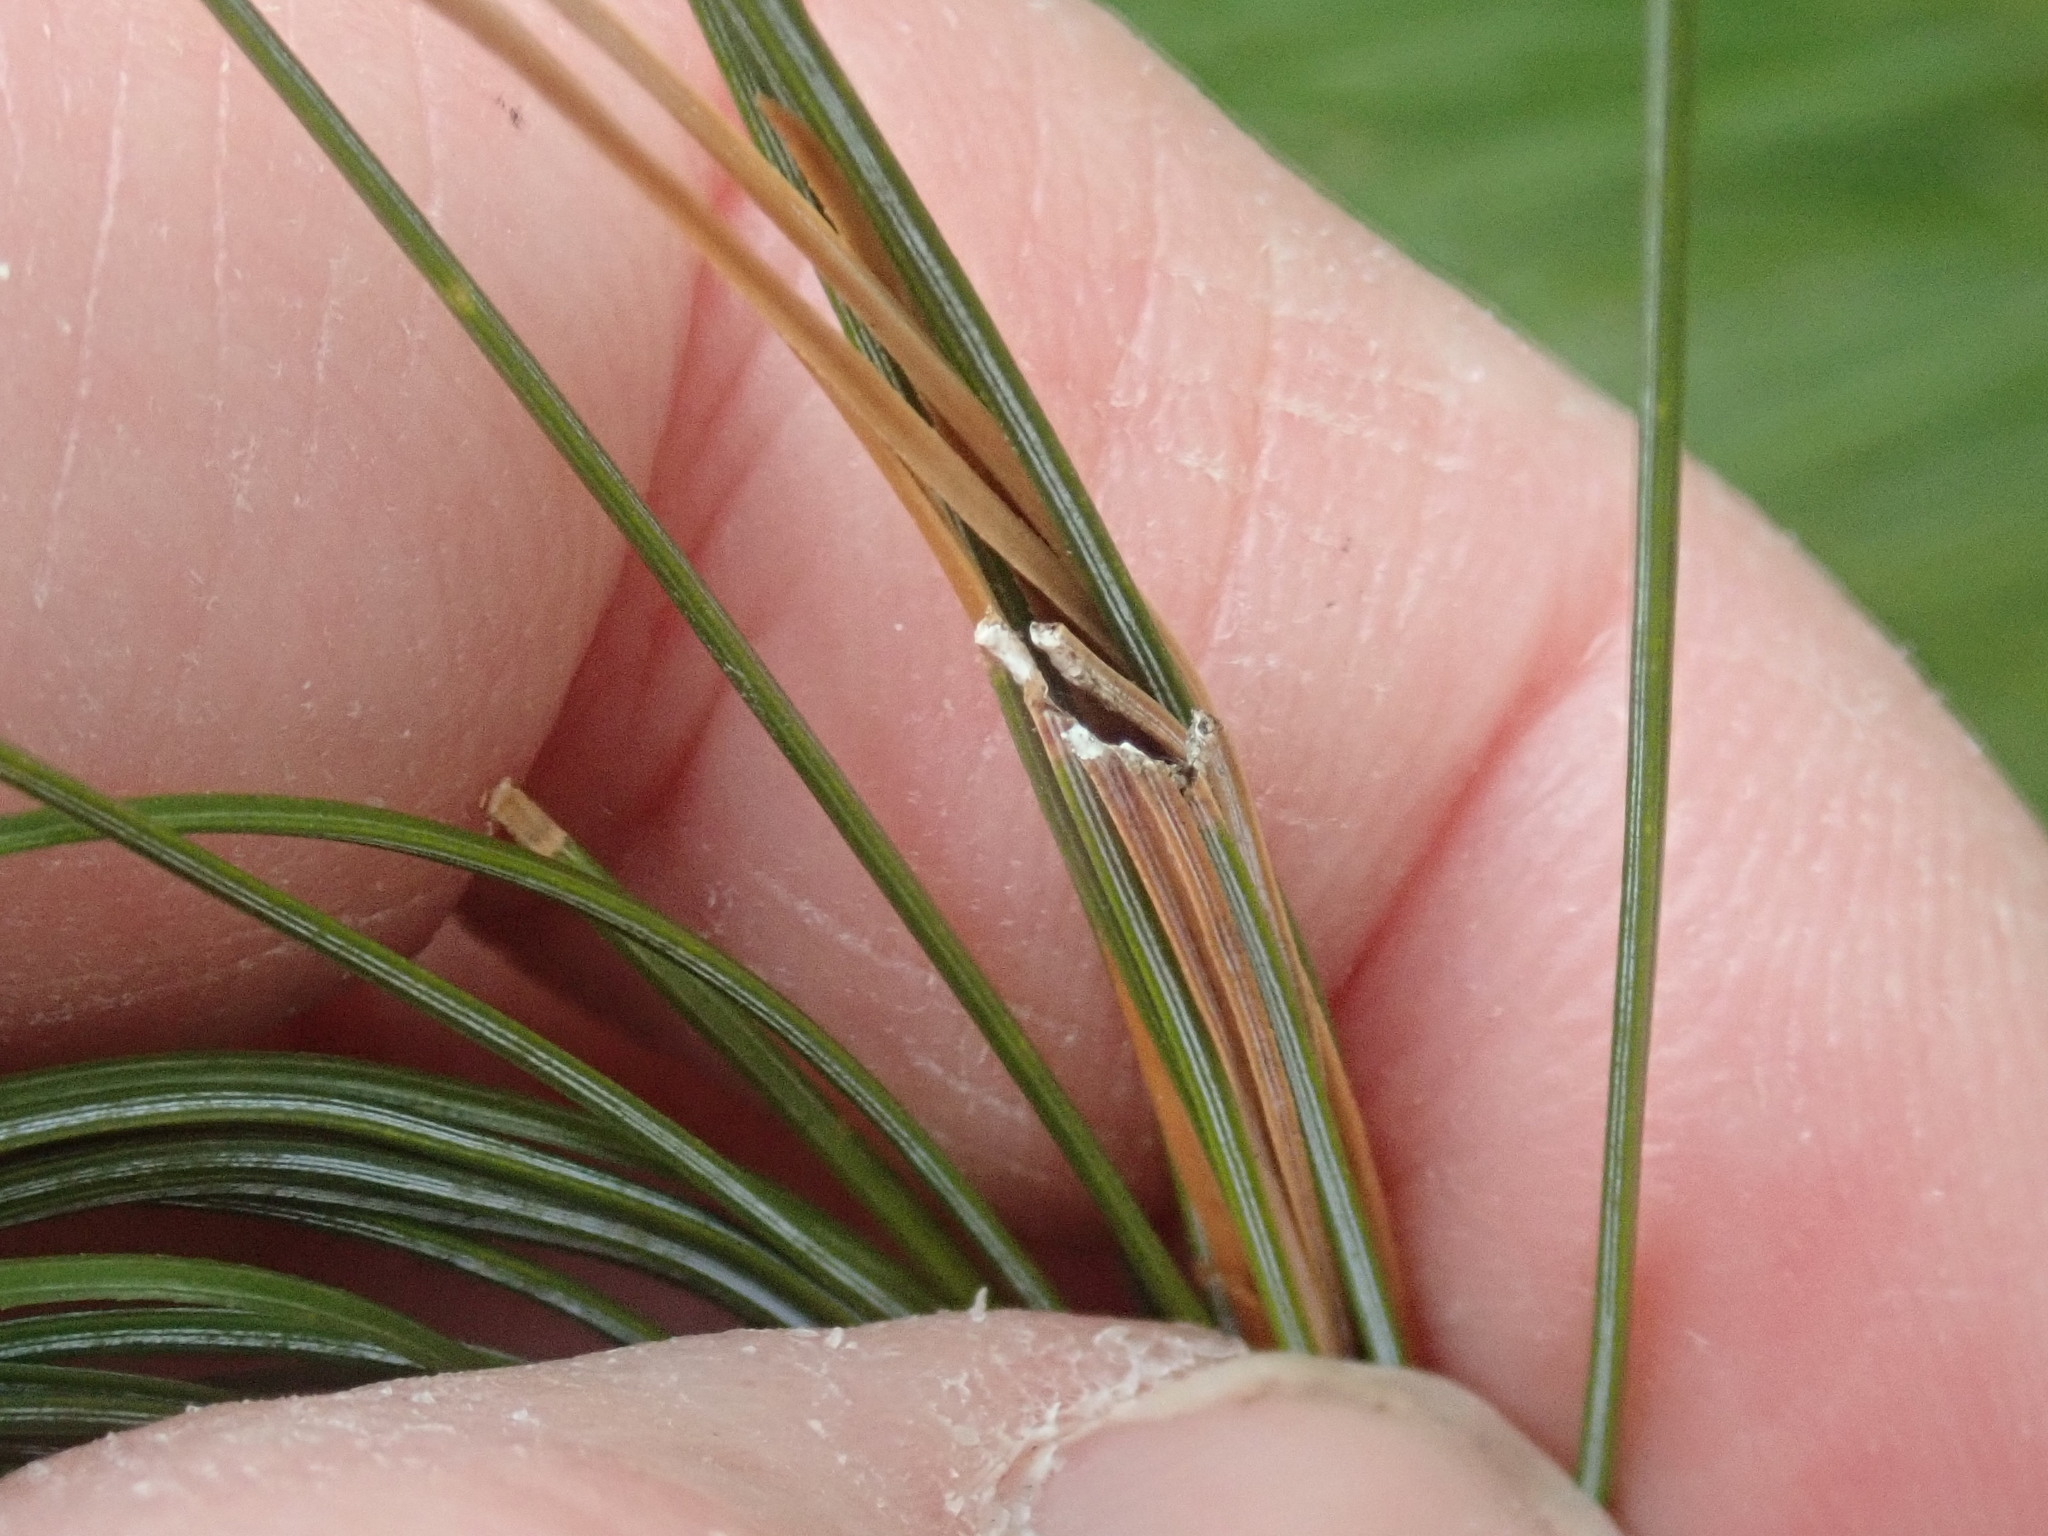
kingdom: Animalia
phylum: Arthropoda
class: Insecta
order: Lepidoptera
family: Tortricidae
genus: Argyrotaenia
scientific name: Argyrotaenia pinatubana
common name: Pine tube moth
